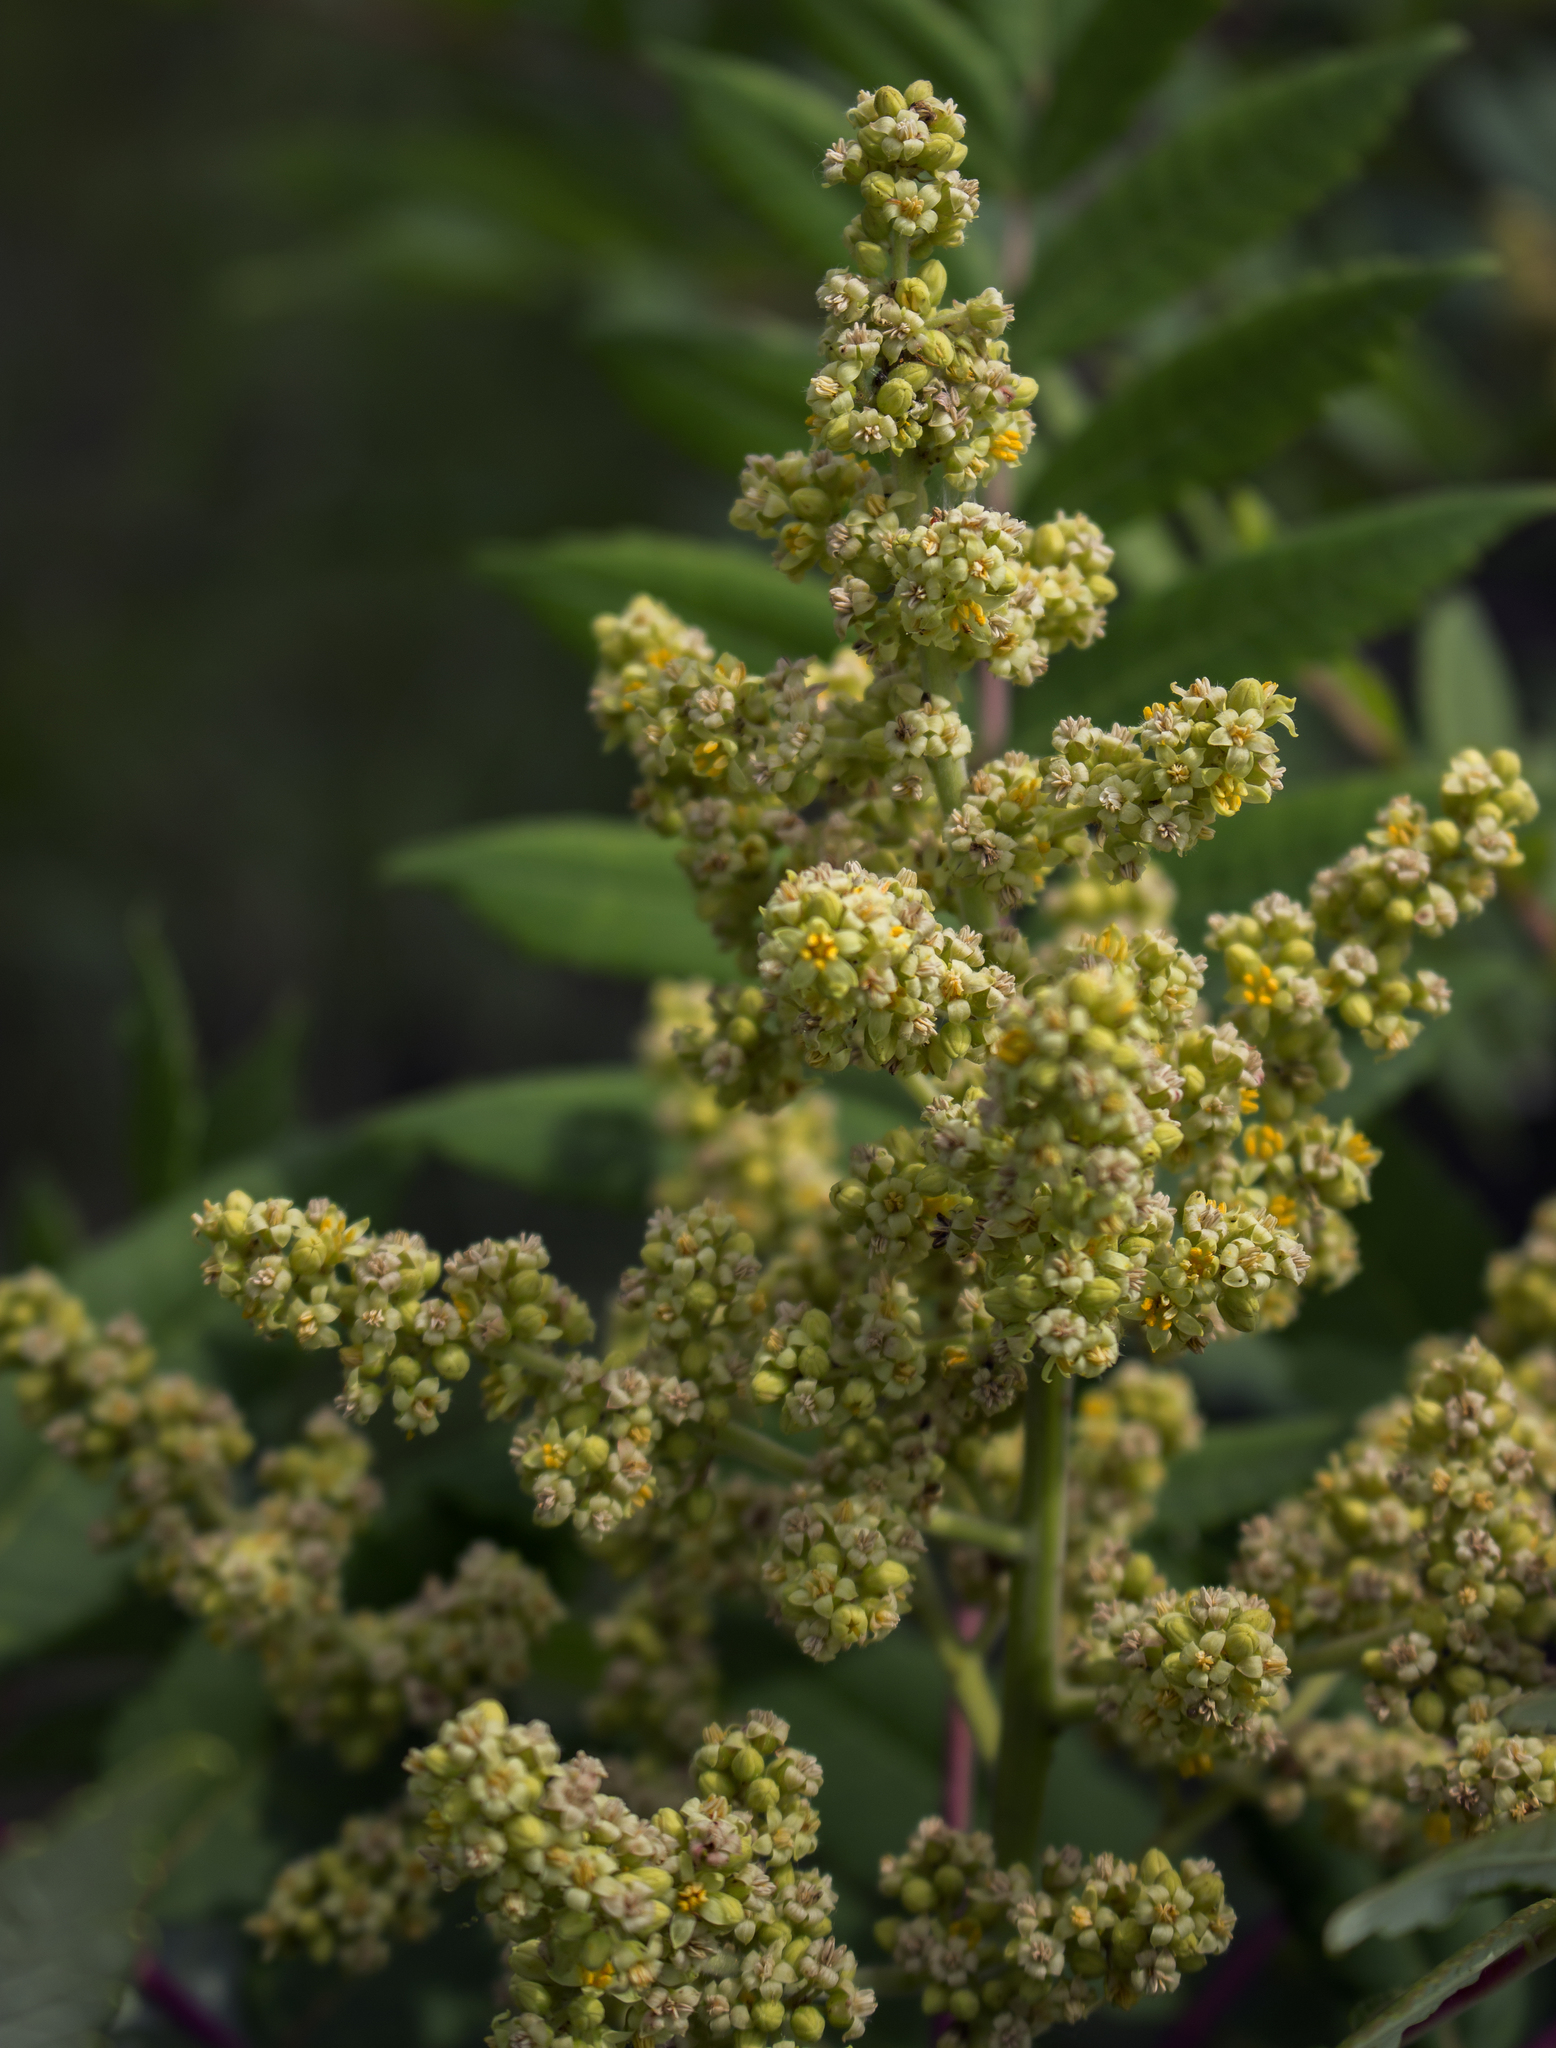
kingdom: Plantae
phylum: Tracheophyta
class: Magnoliopsida
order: Sapindales
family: Anacardiaceae
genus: Rhus
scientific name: Rhus glabra
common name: Scarlet sumac
